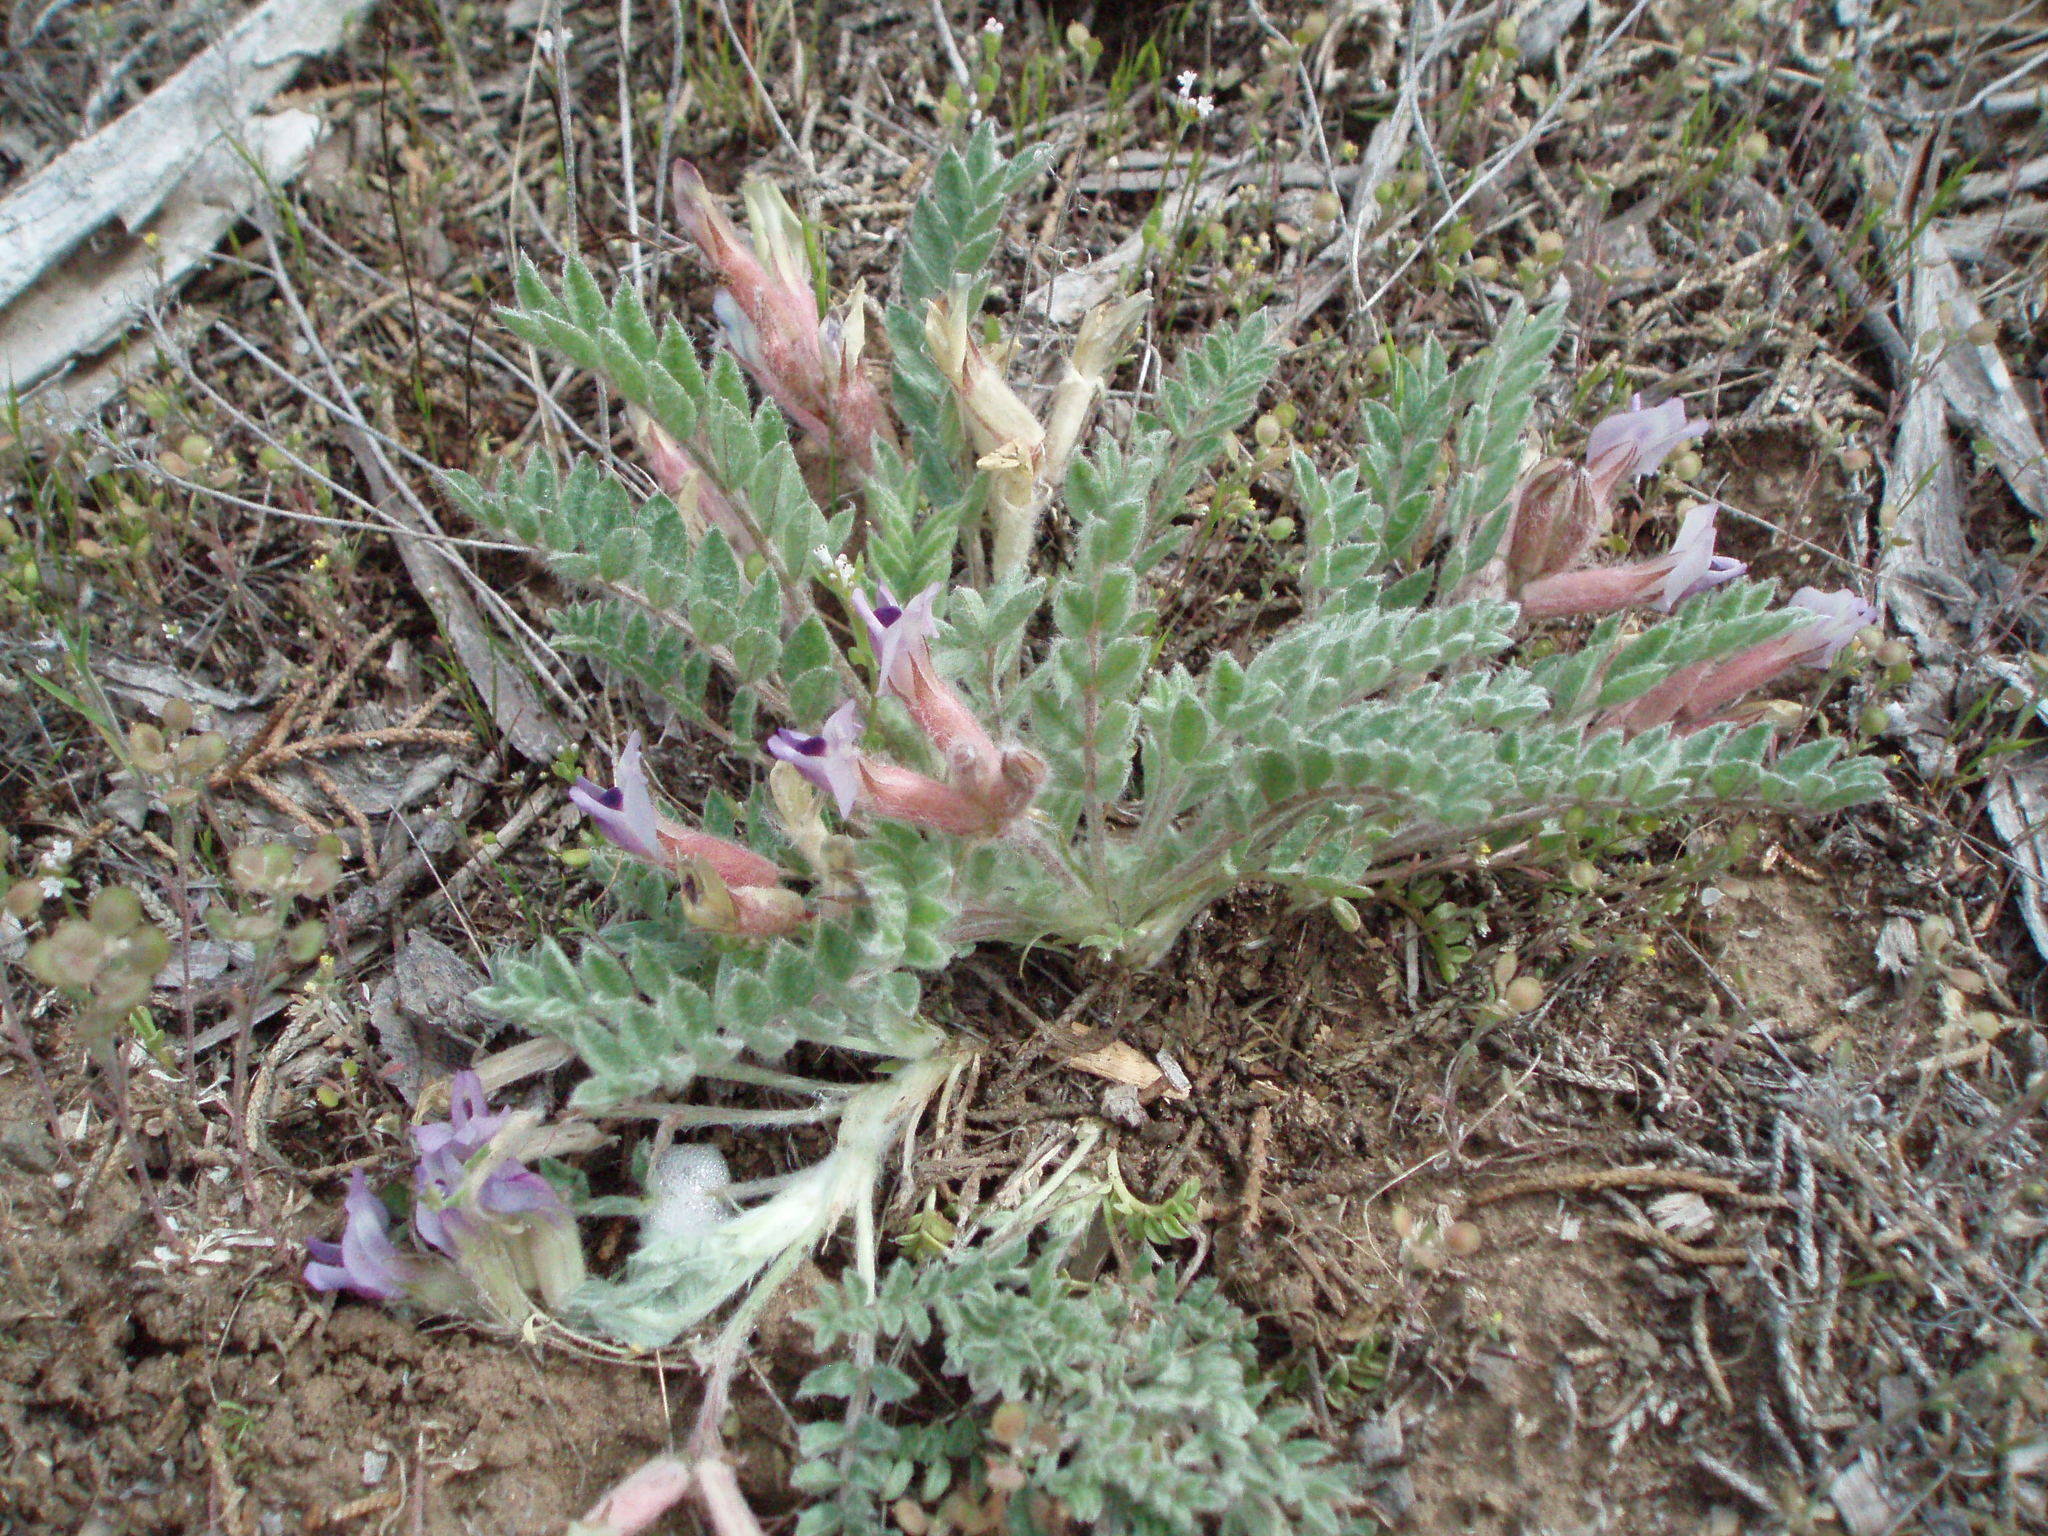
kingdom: Plantae
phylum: Tracheophyta
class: Magnoliopsida
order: Fabales
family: Fabaceae
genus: Astragalus
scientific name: Astragalus purshii
